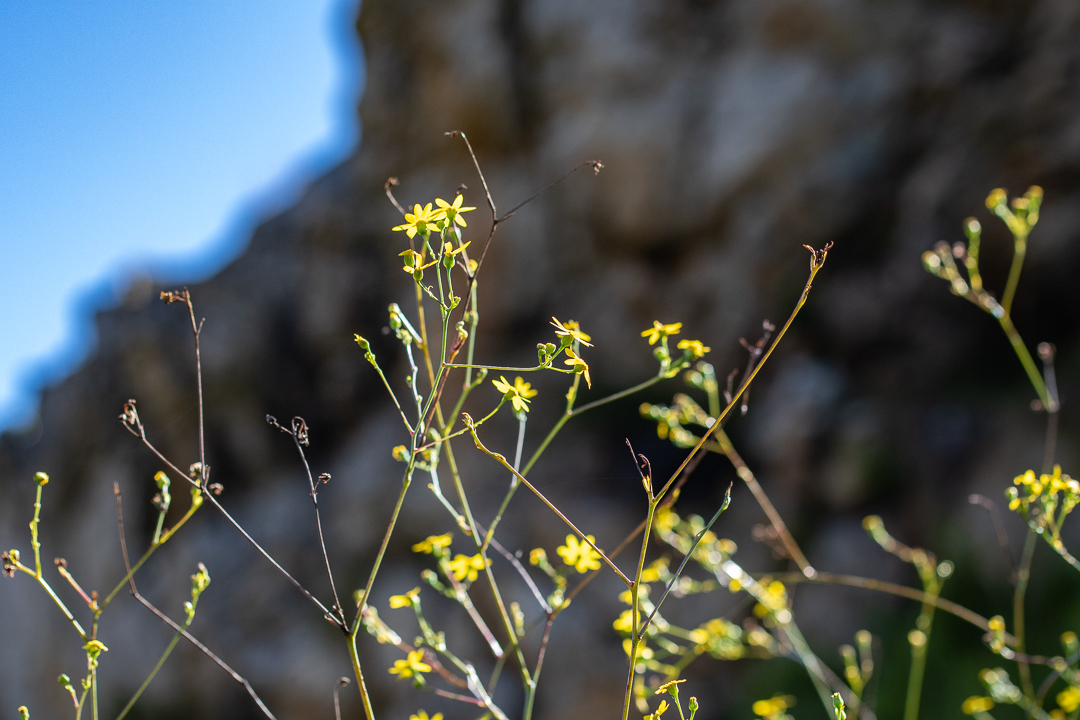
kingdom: Plantae
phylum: Tracheophyta
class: Magnoliopsida
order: Asterales
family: Asteraceae
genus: Othonna
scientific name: Othonna quinquedentata
